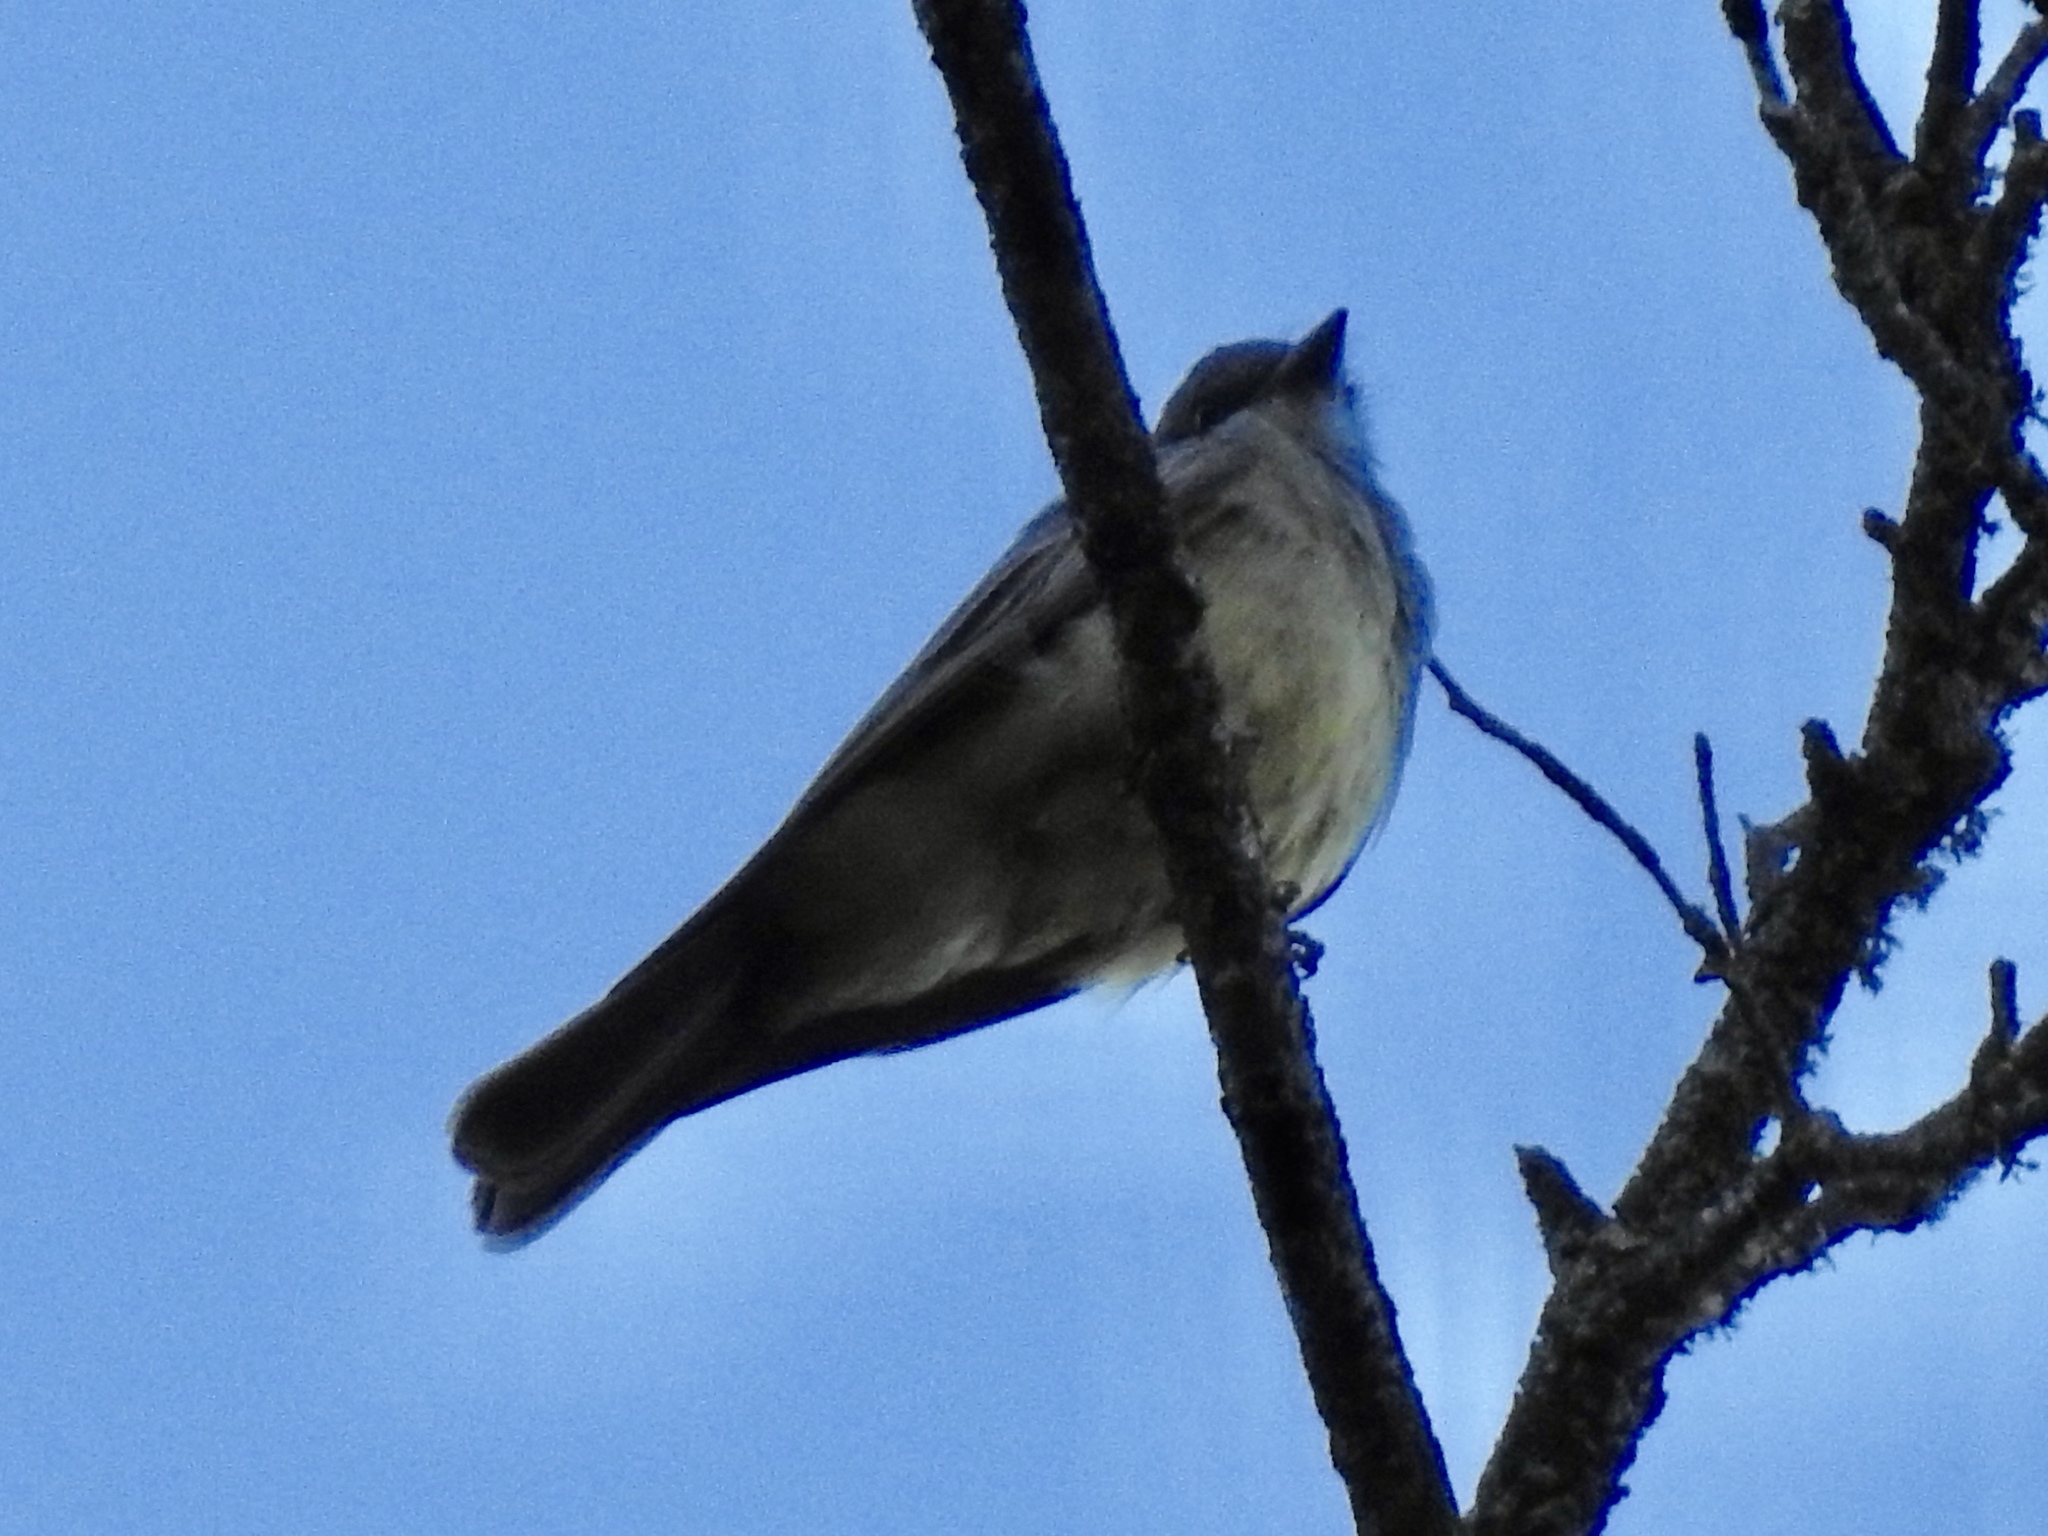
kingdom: Animalia
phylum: Chordata
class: Aves
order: Passeriformes
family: Tyrannidae
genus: Tyrannus
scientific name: Tyrannus vociferans
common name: Cassin's kingbird
